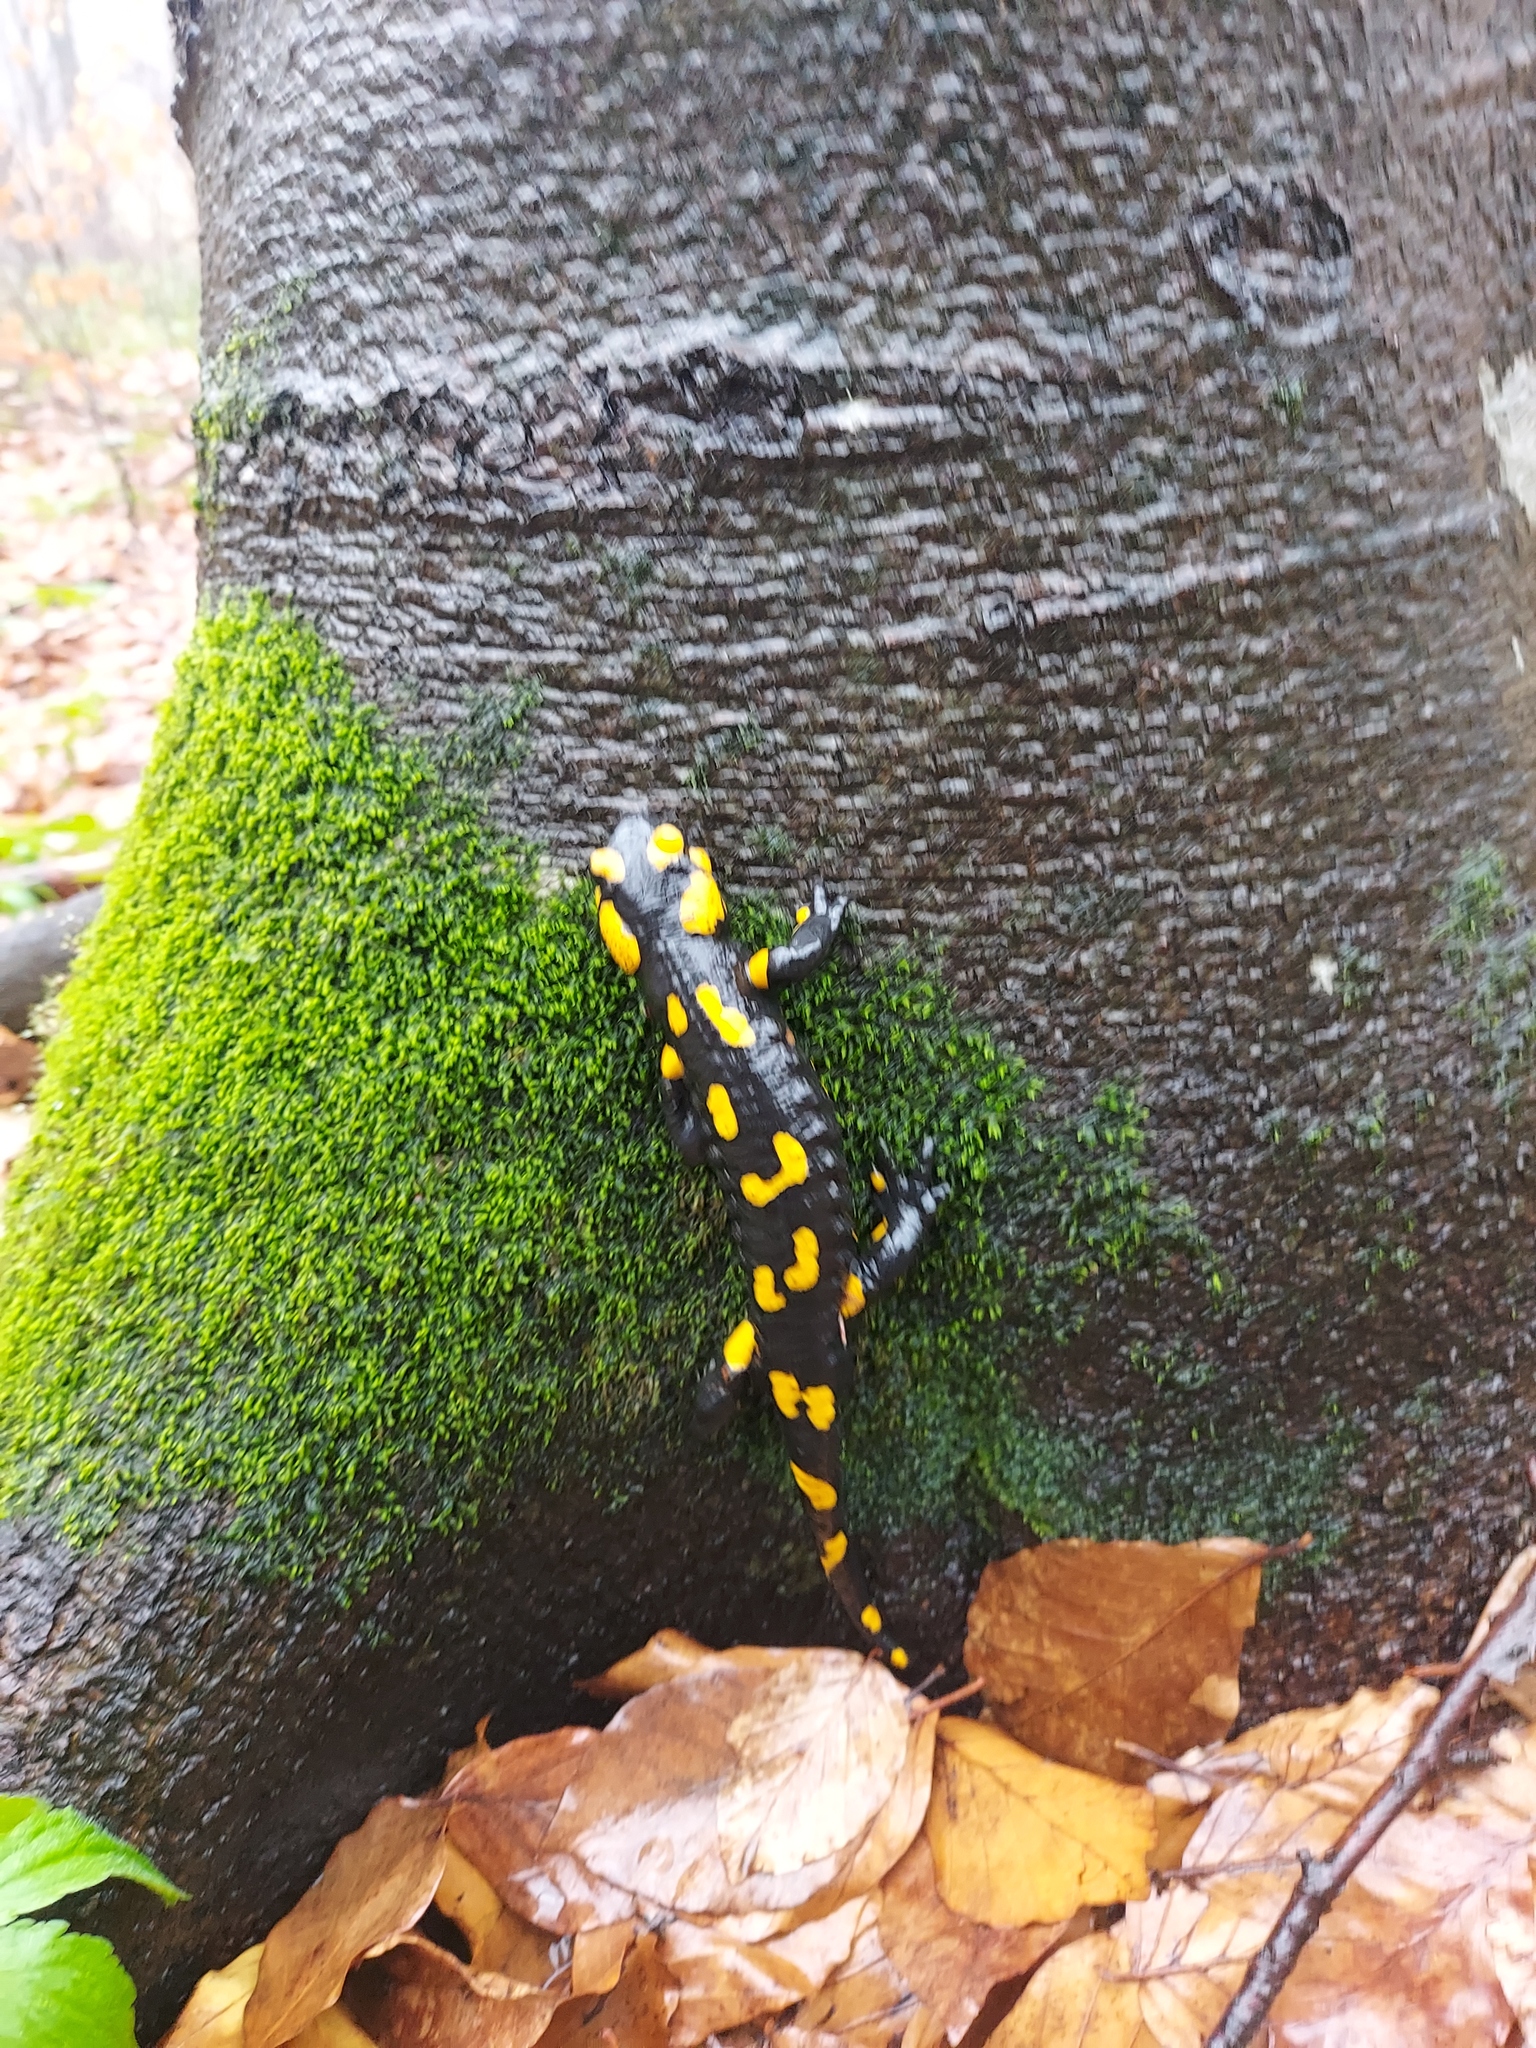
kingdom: Animalia
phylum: Chordata
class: Amphibia
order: Caudata
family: Salamandridae
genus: Salamandra
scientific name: Salamandra salamandra
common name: Fire salamander
